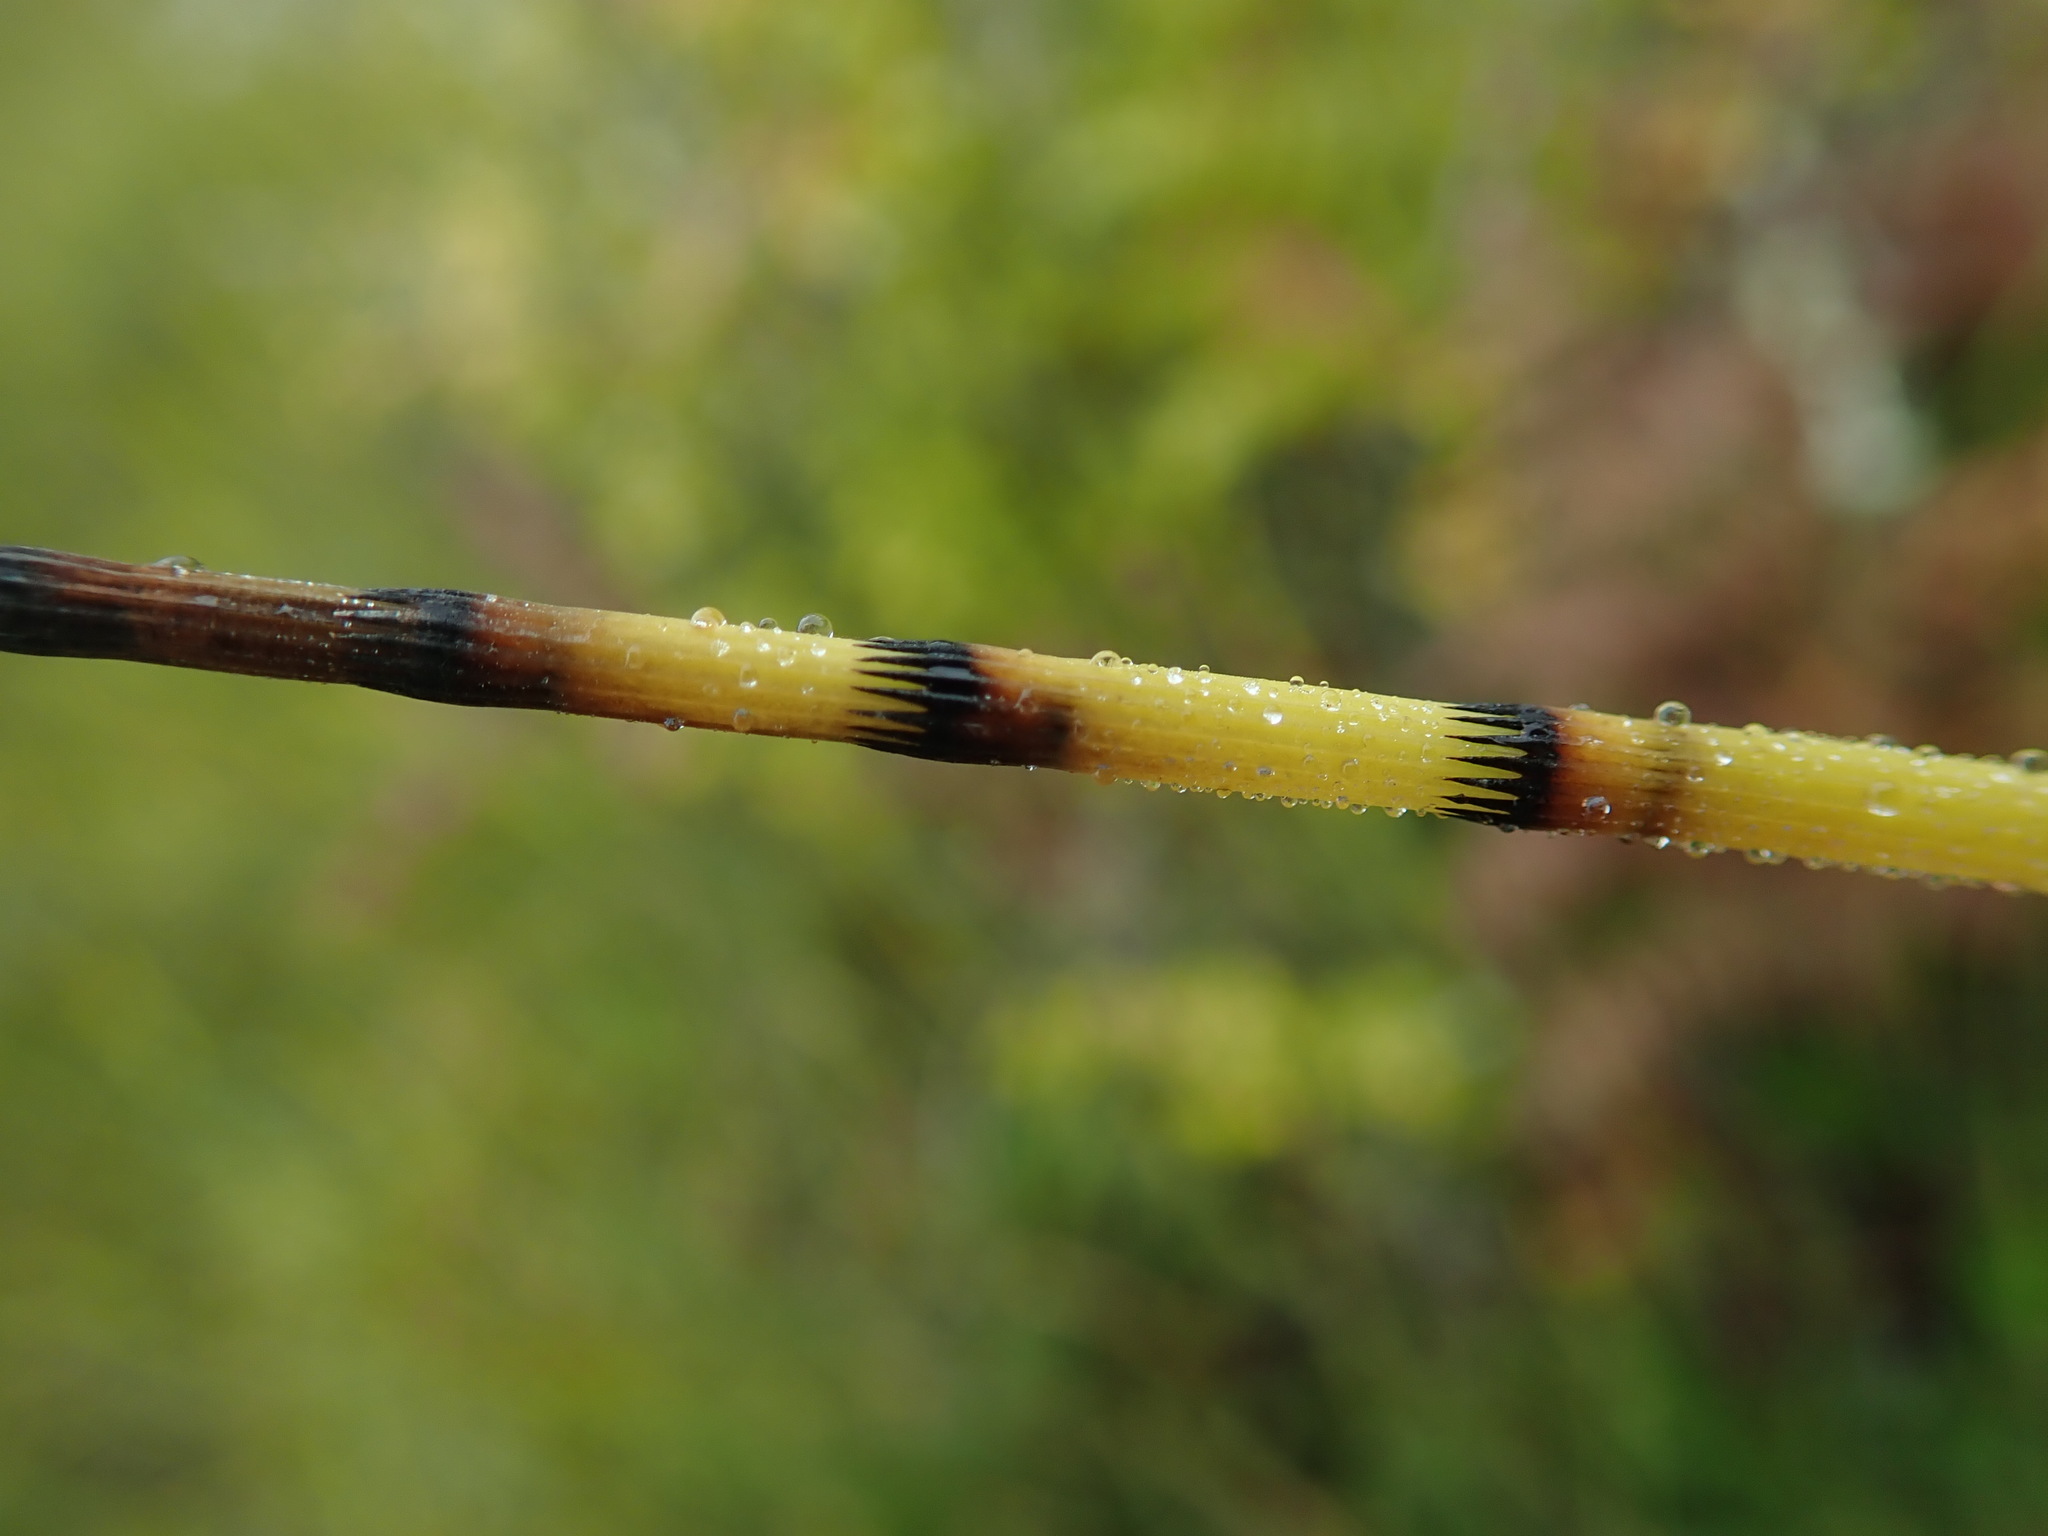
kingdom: Plantae
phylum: Tracheophyta
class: Polypodiopsida
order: Equisetales
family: Equisetaceae
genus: Equisetum
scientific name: Equisetum fluviatile
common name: Water horsetail
